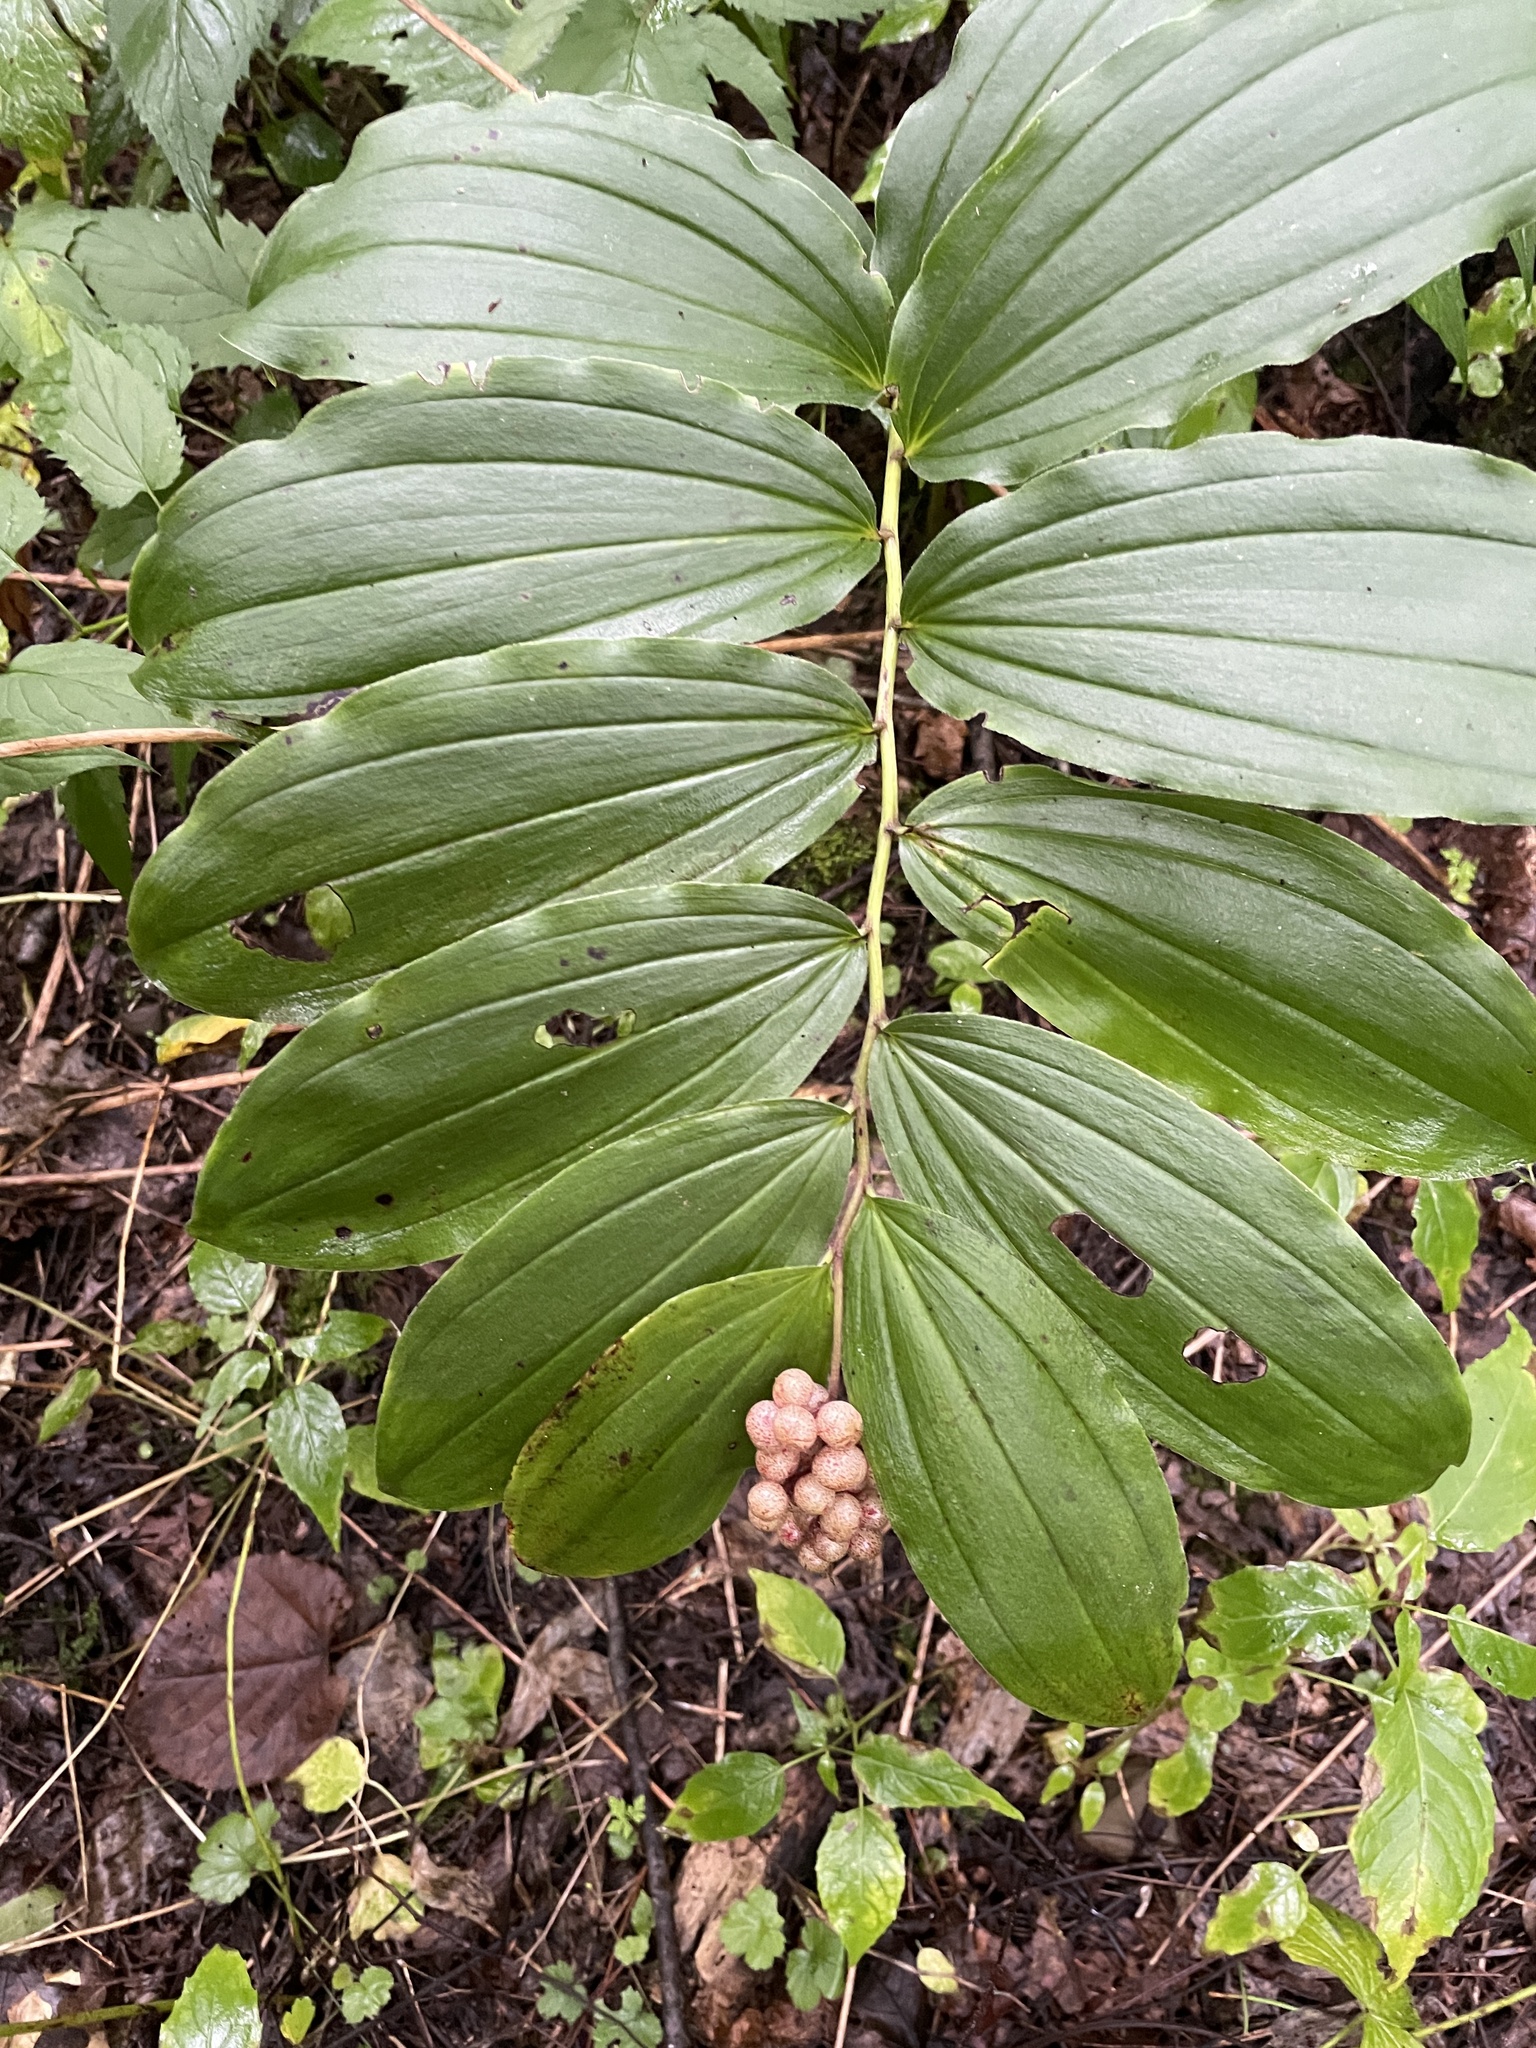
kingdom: Plantae
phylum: Tracheophyta
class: Liliopsida
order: Asparagales
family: Asparagaceae
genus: Maianthemum
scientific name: Maianthemum racemosum
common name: False spikenard
